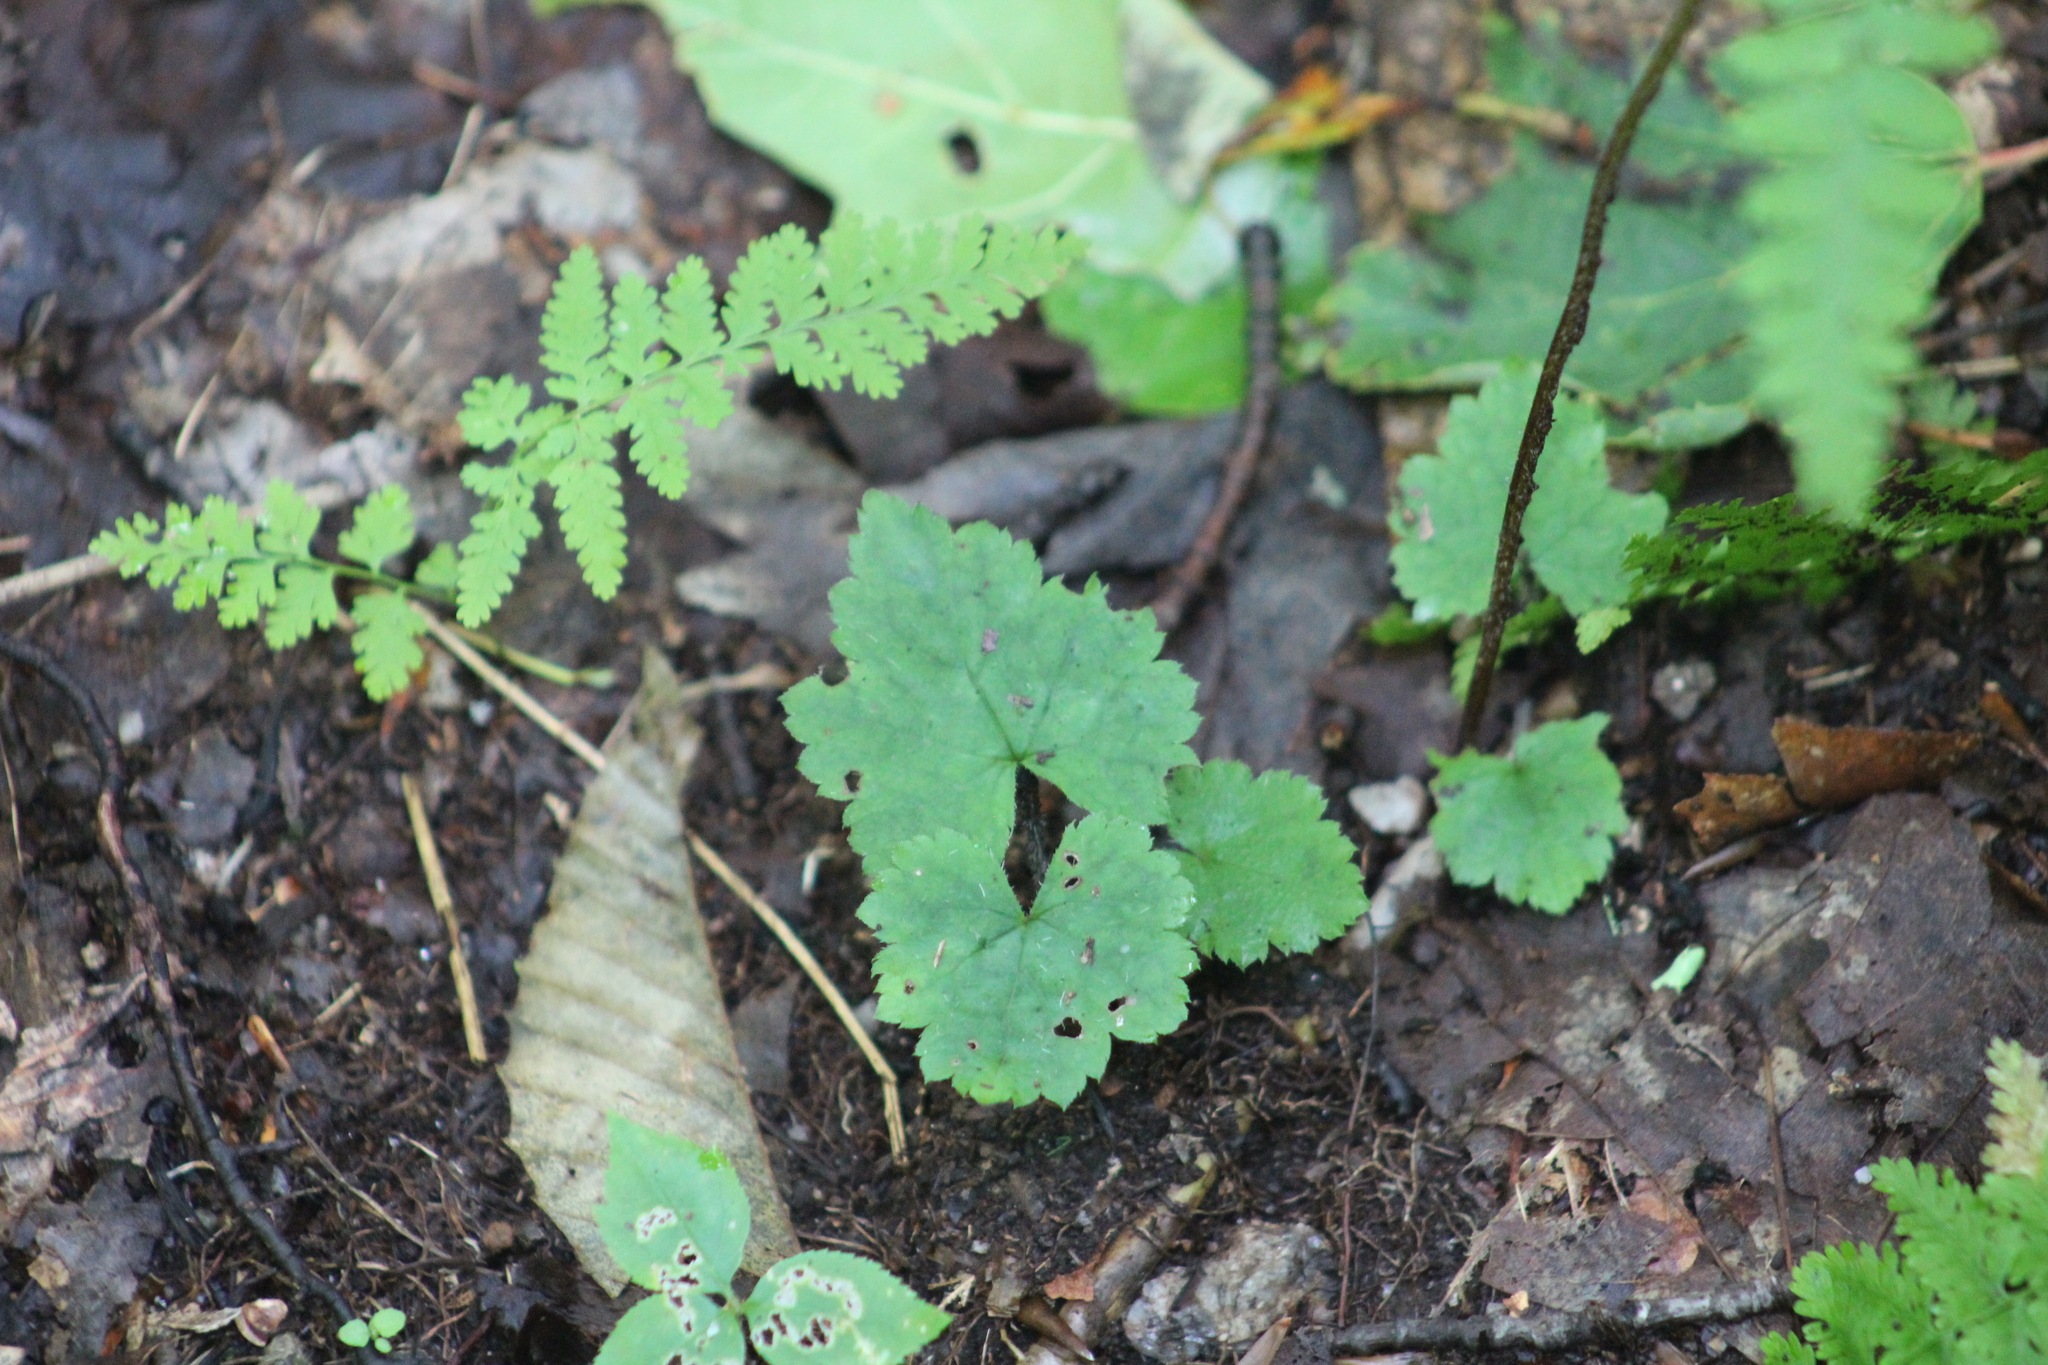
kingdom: Plantae
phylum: Tracheophyta
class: Magnoliopsida
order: Saxifragales
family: Saxifragaceae
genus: Tiarella
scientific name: Tiarella stolonifera
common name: Stoloniferous foamflower
